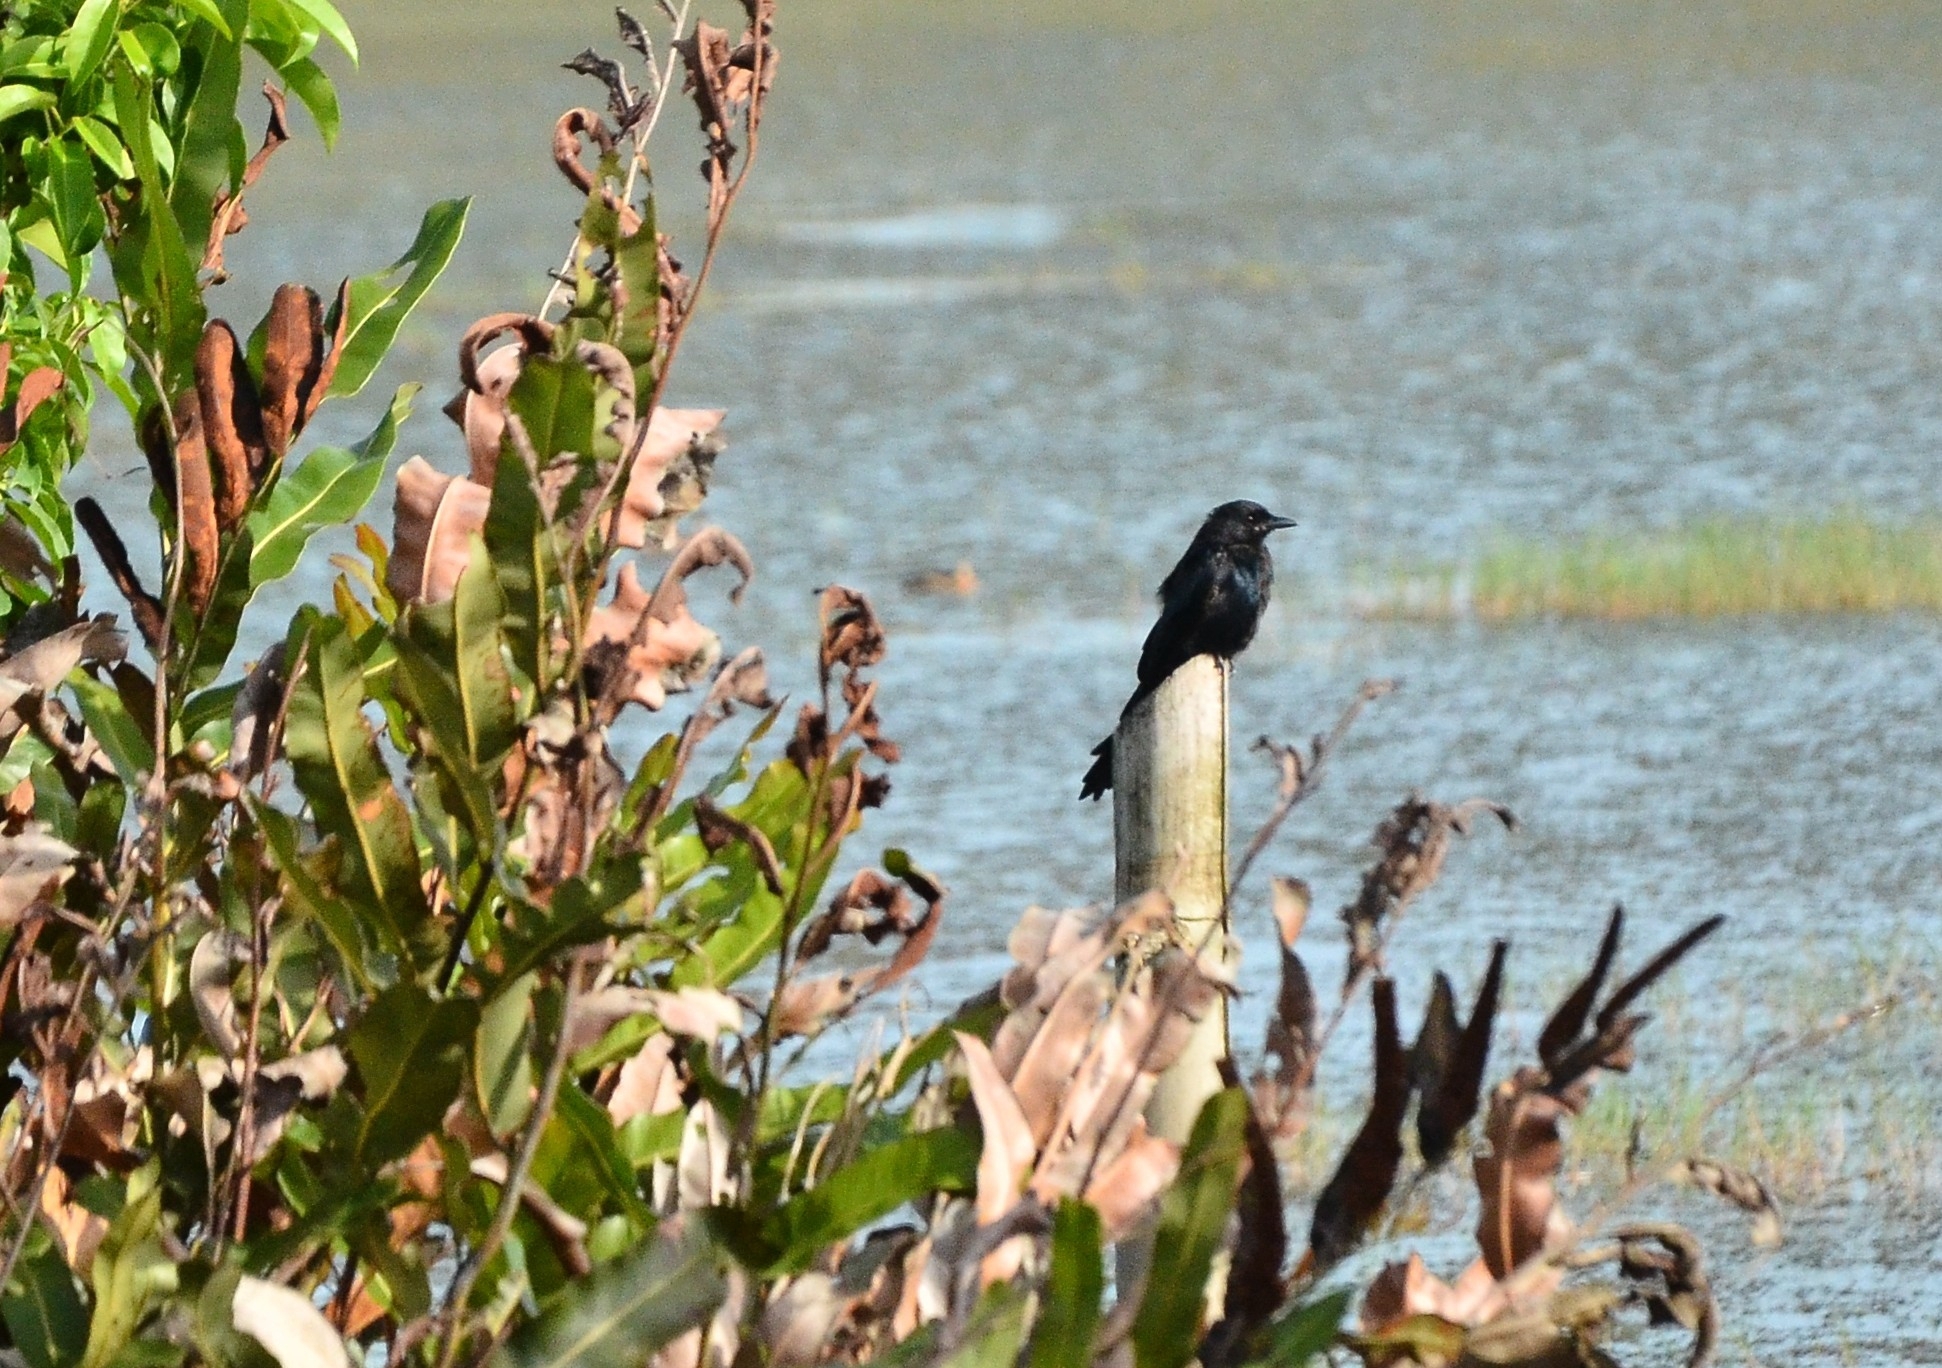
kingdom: Animalia
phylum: Chordata
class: Aves
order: Passeriformes
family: Dicruridae
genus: Dicrurus
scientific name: Dicrurus macrocercus
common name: Black drongo
